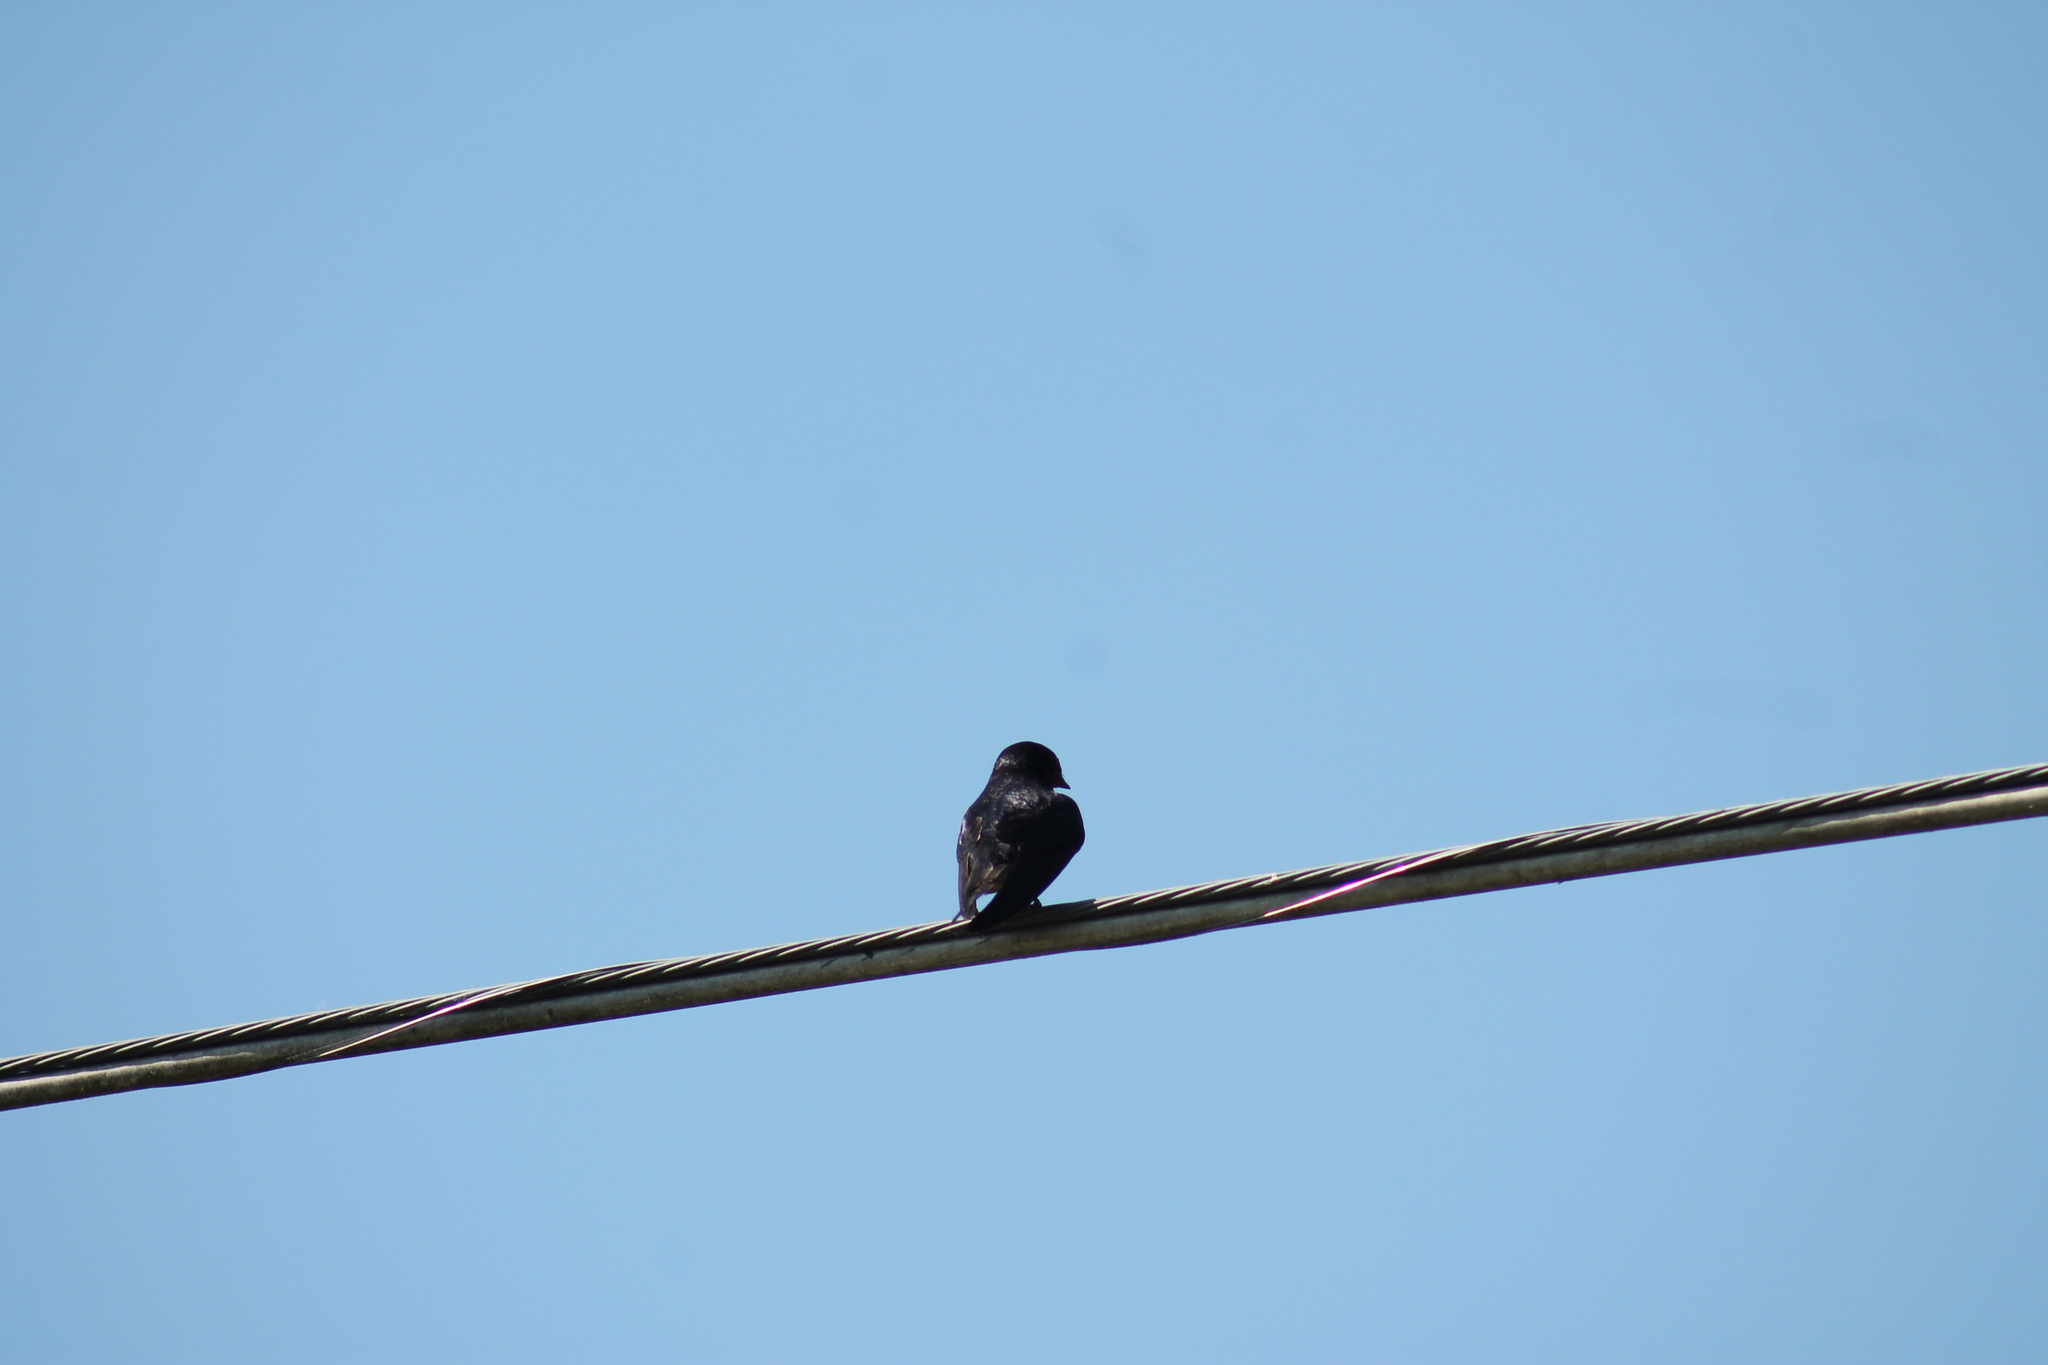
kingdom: Animalia
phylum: Chordata
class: Aves
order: Passeriformes
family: Hirundinidae
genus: Progne
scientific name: Progne subis
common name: Purple martin
